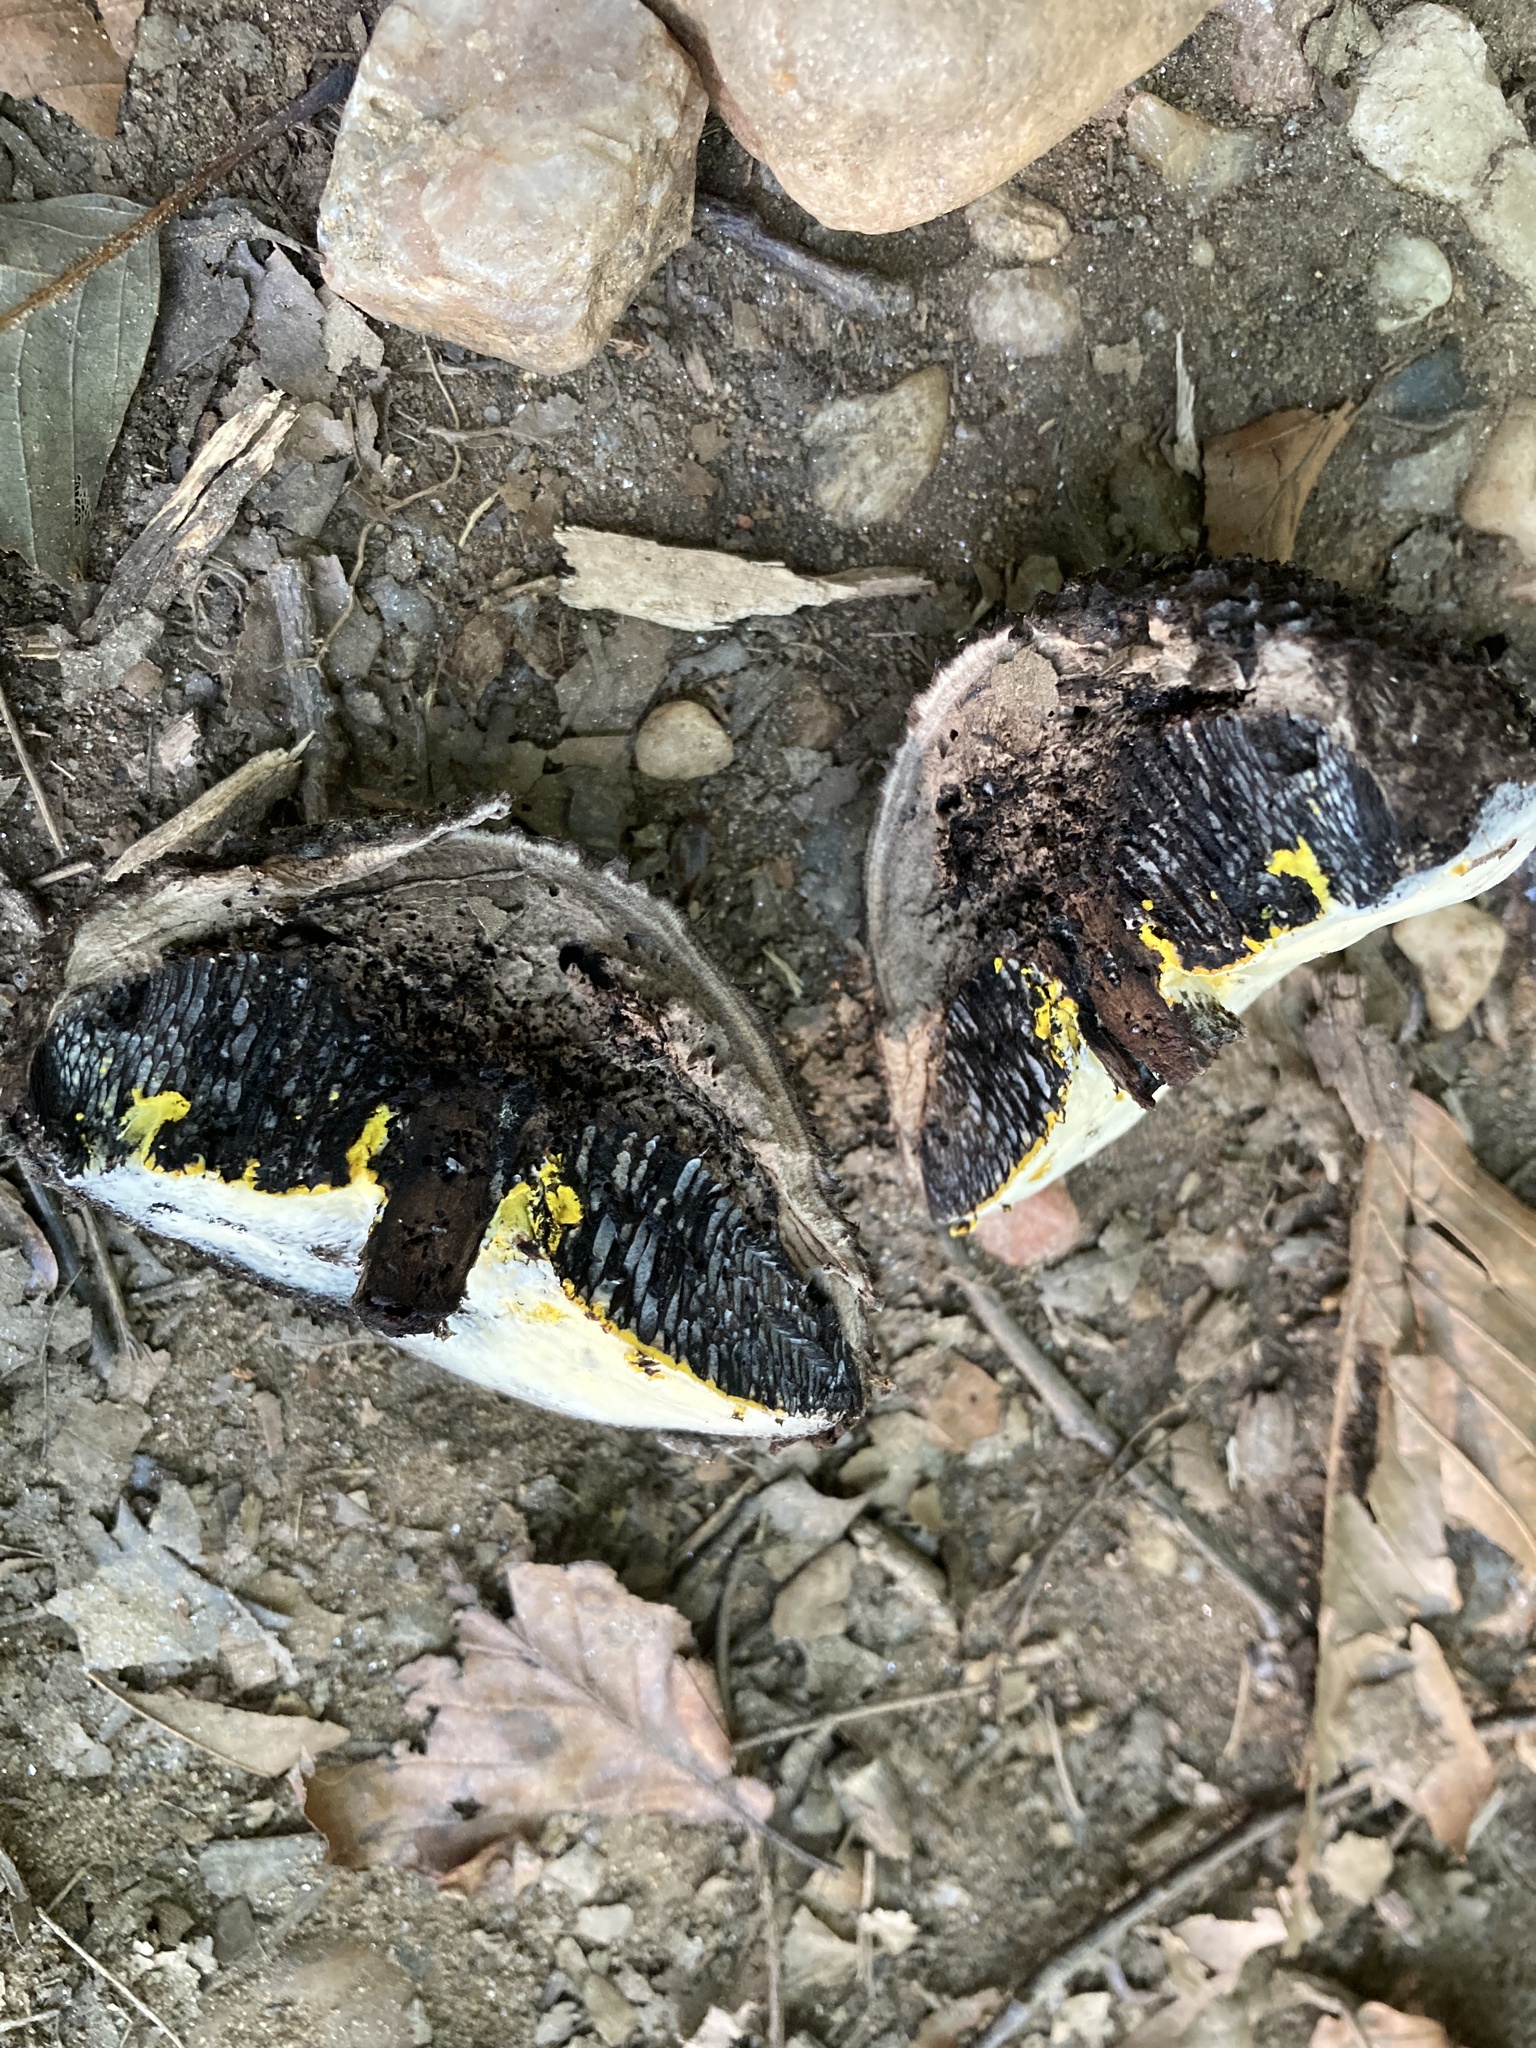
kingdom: Fungi
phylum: Basidiomycota
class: Agaricomycetes
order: Boletales
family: Boletaceae
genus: Strobilomyces
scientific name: Strobilomyces strobilaceus
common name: Old man of the woods
